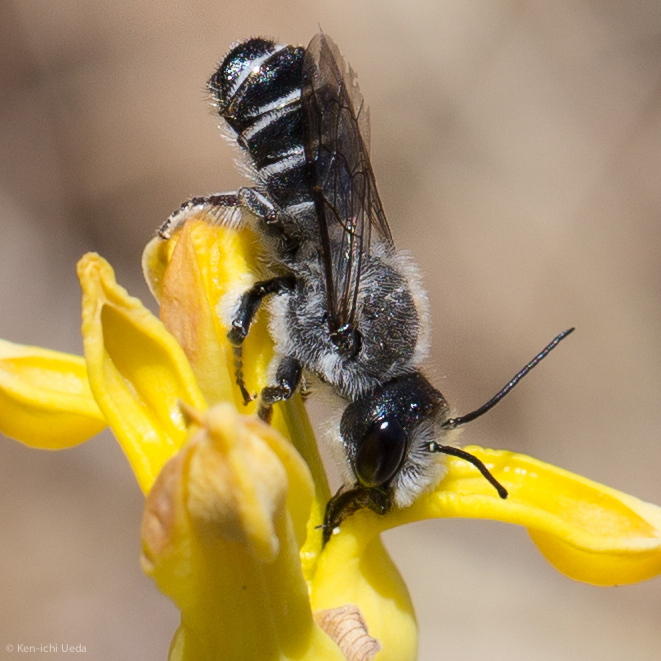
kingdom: Animalia
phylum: Arthropoda
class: Insecta
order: Hymenoptera
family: Megachilidae
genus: Megachile
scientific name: Megachile davidsoni
